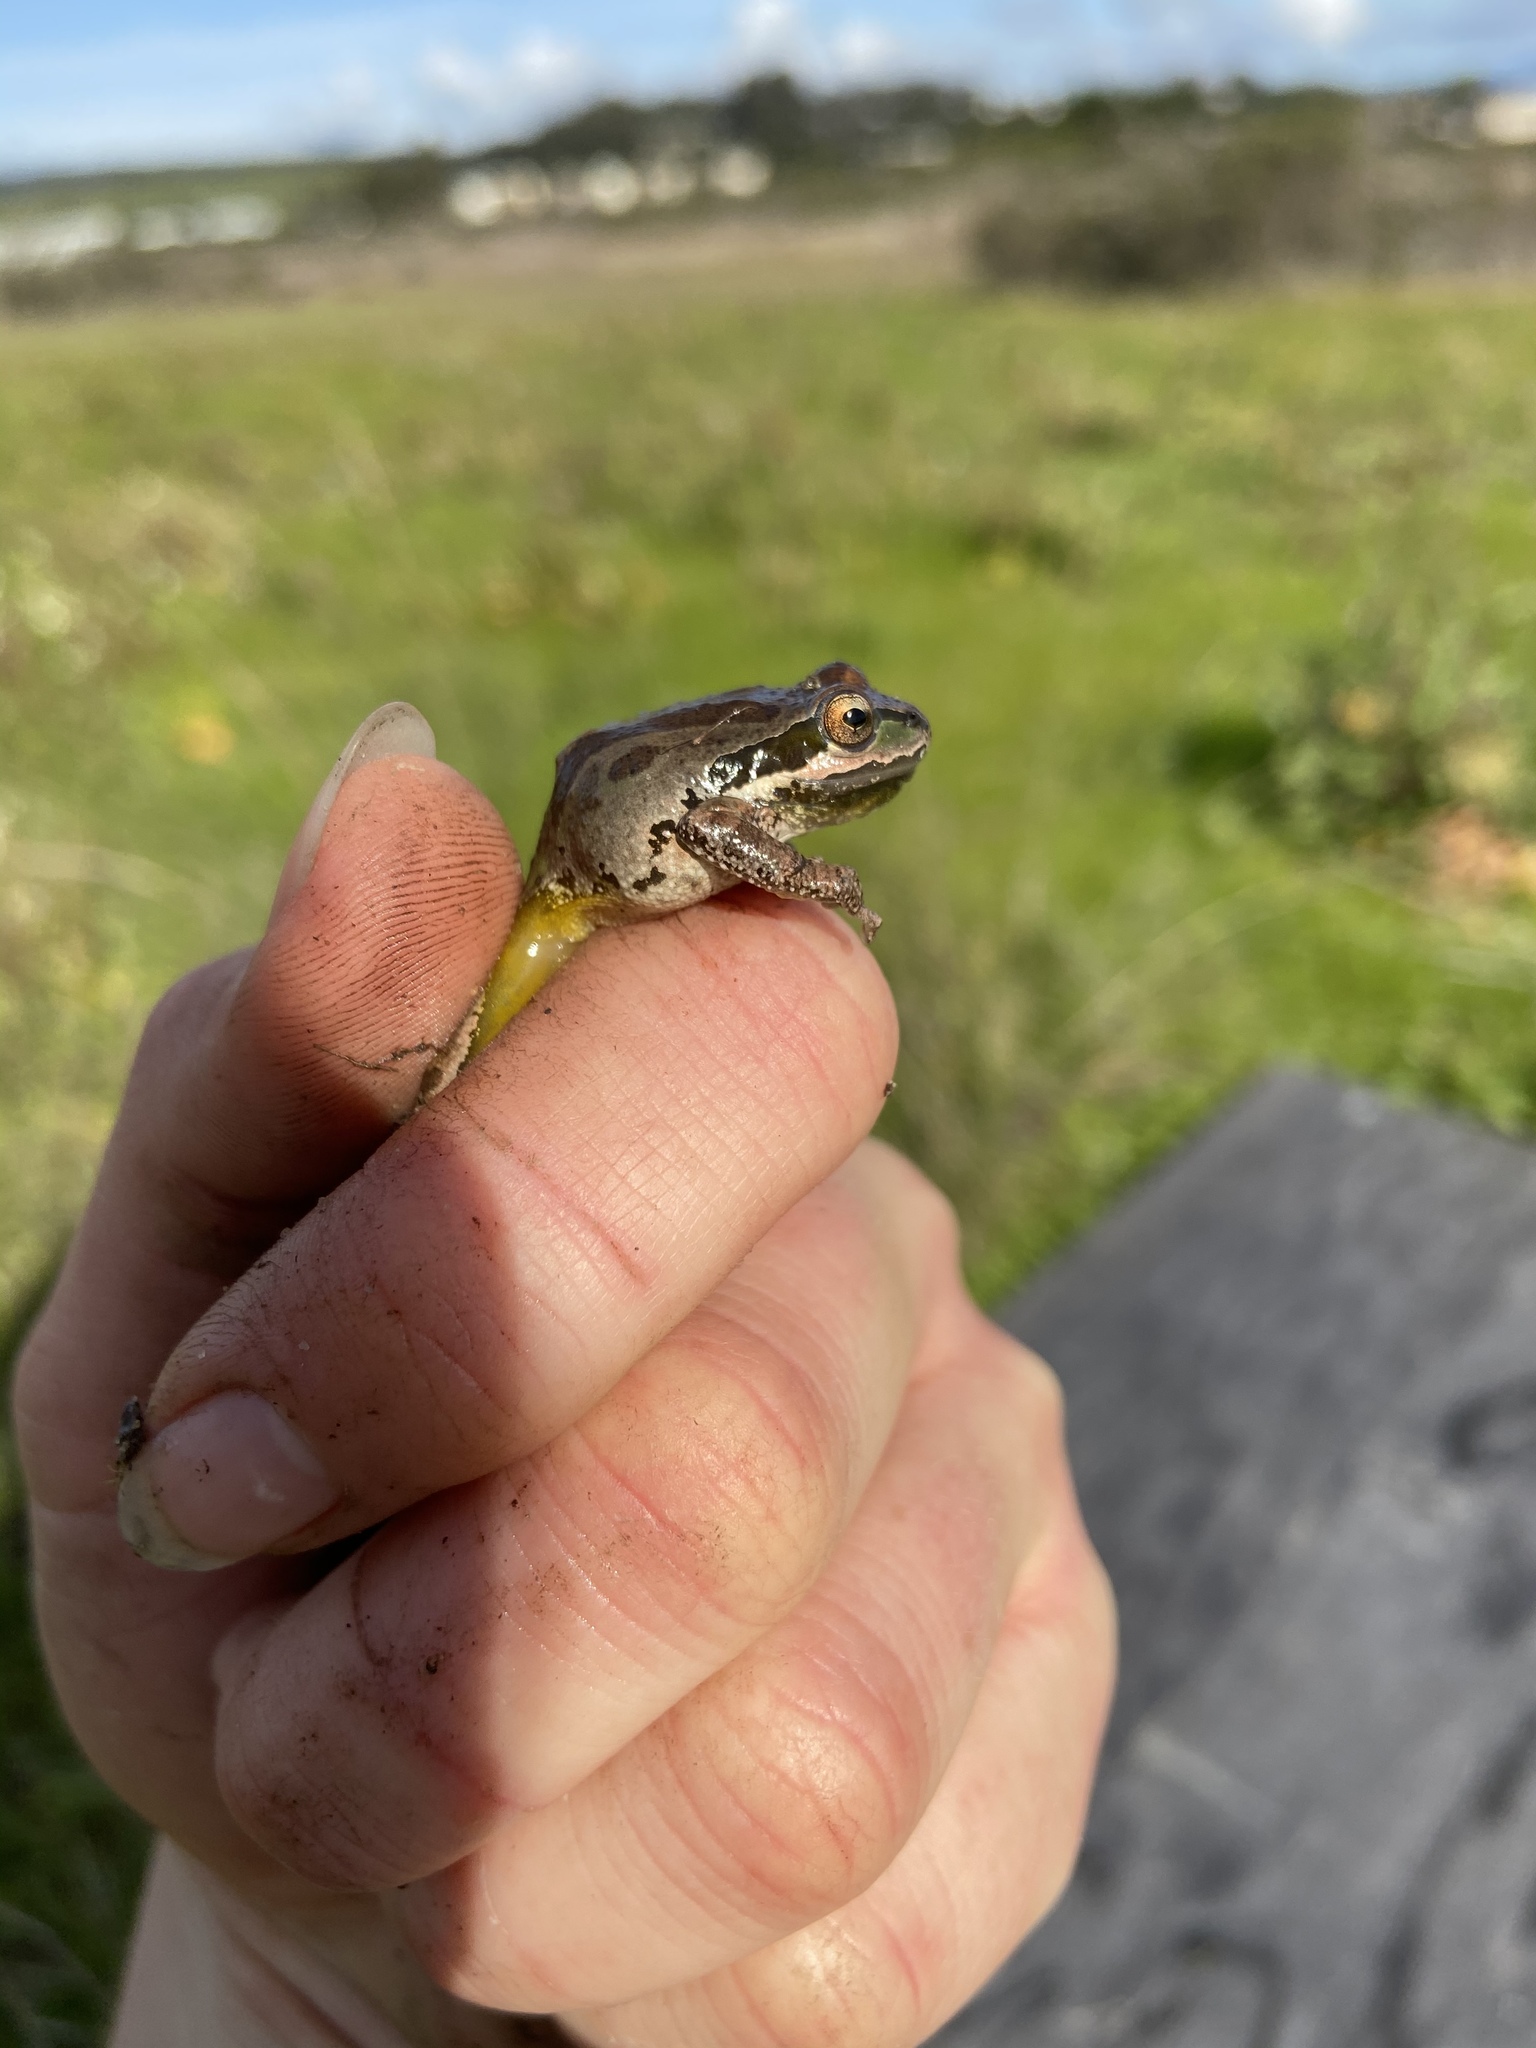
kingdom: Animalia
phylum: Chordata
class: Amphibia
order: Anura
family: Hylidae
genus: Pseudacris
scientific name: Pseudacris regilla
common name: Pacific chorus frog
